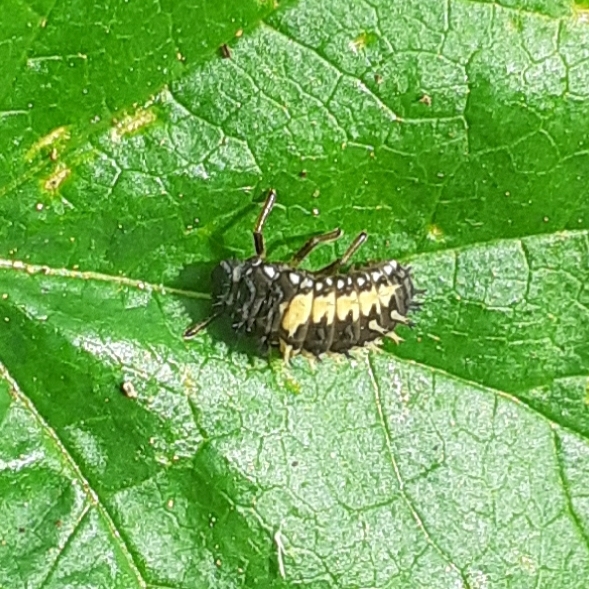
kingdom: Animalia
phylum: Arthropoda
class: Insecta
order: Coleoptera
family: Coccinellidae
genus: Harmonia
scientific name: Harmonia axyridis
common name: Harlequin ladybird
